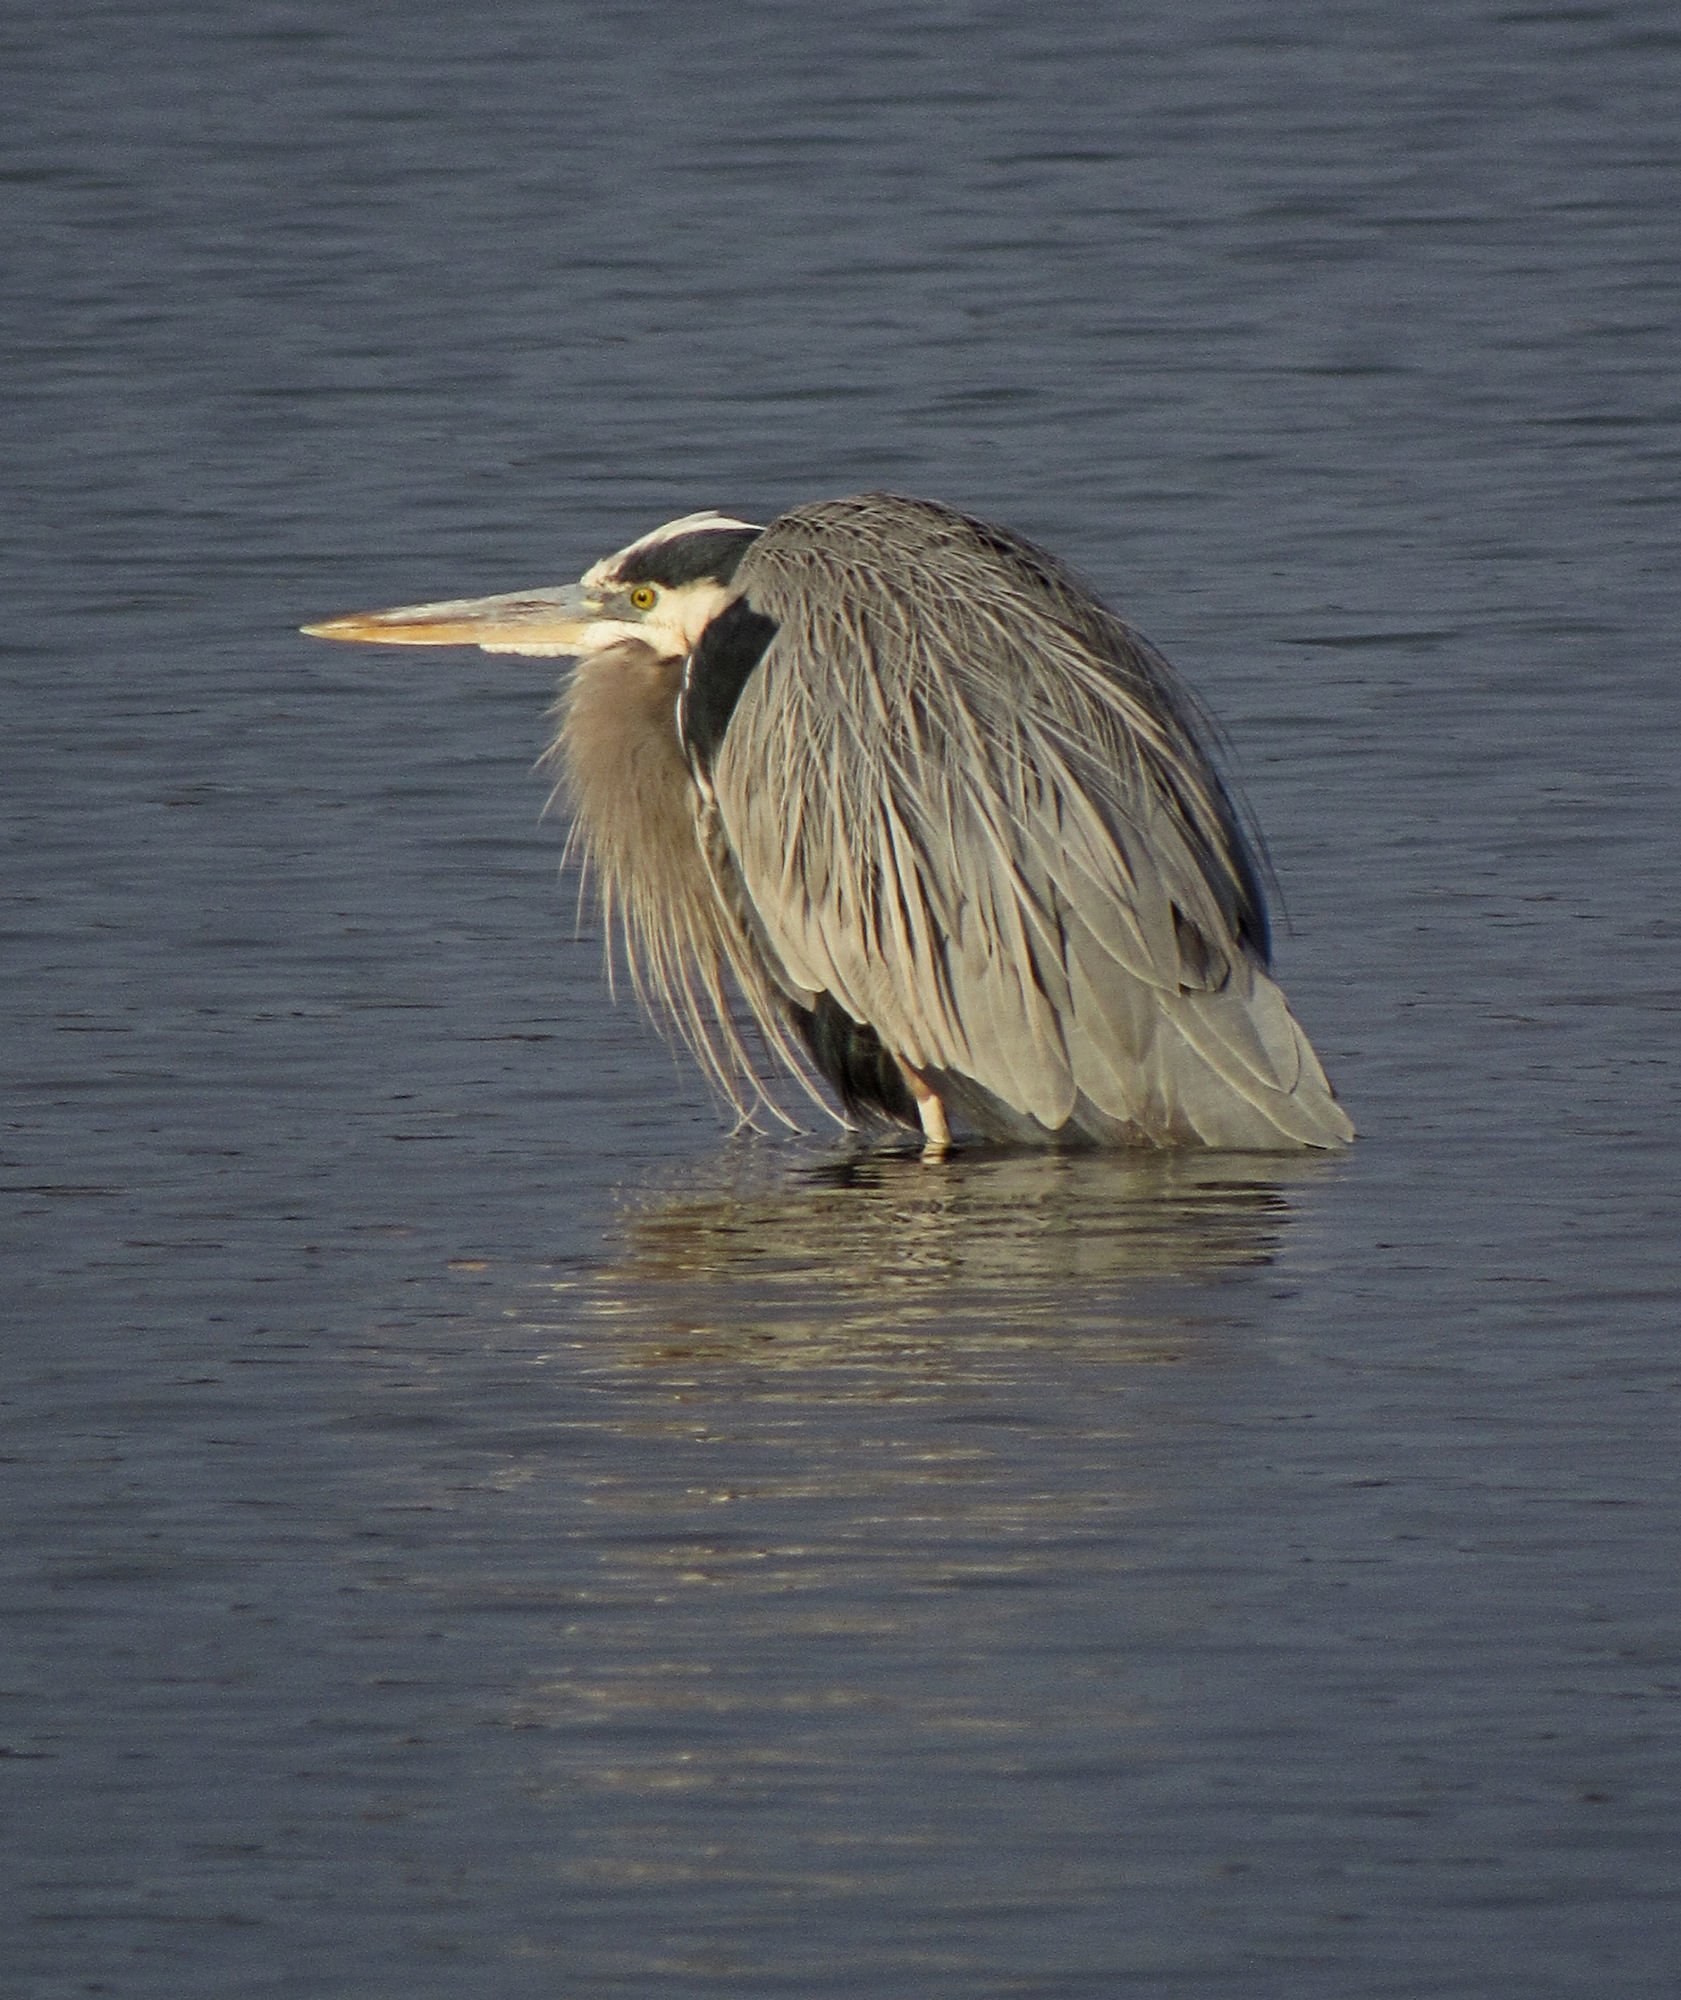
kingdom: Animalia
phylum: Chordata
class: Aves
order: Pelecaniformes
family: Ardeidae
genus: Ardea
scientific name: Ardea herodias
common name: Great blue heron
